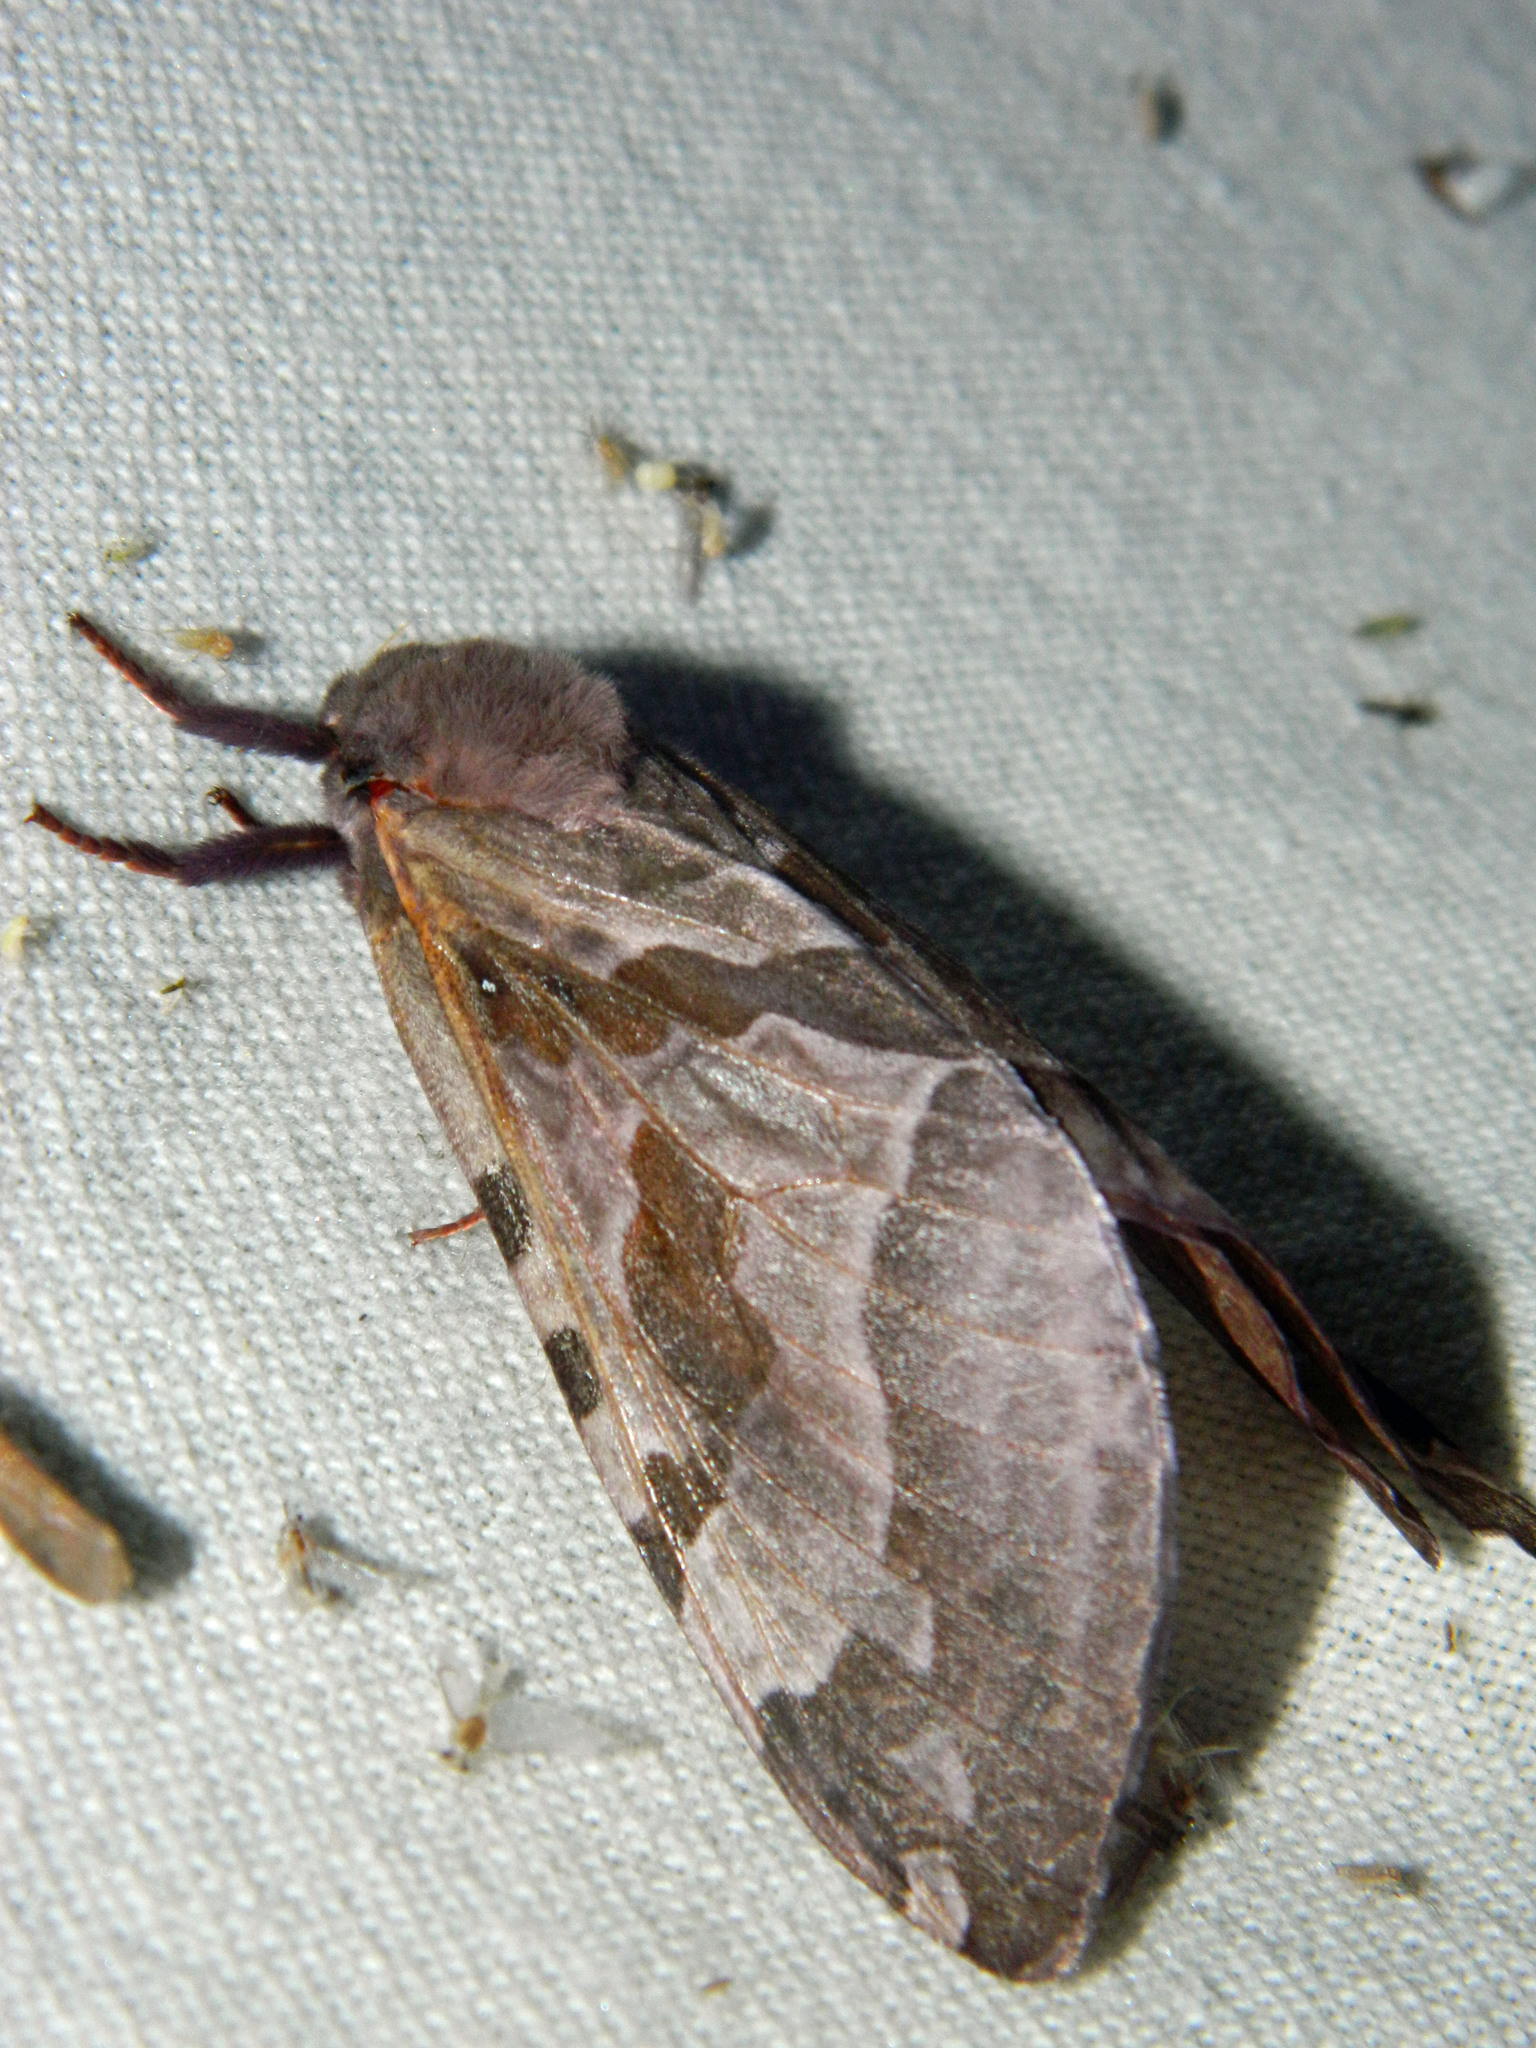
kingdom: Animalia
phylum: Arthropoda
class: Insecta
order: Lepidoptera
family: Hepialidae
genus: Sthenopis
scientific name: Sthenopis purpurascens
